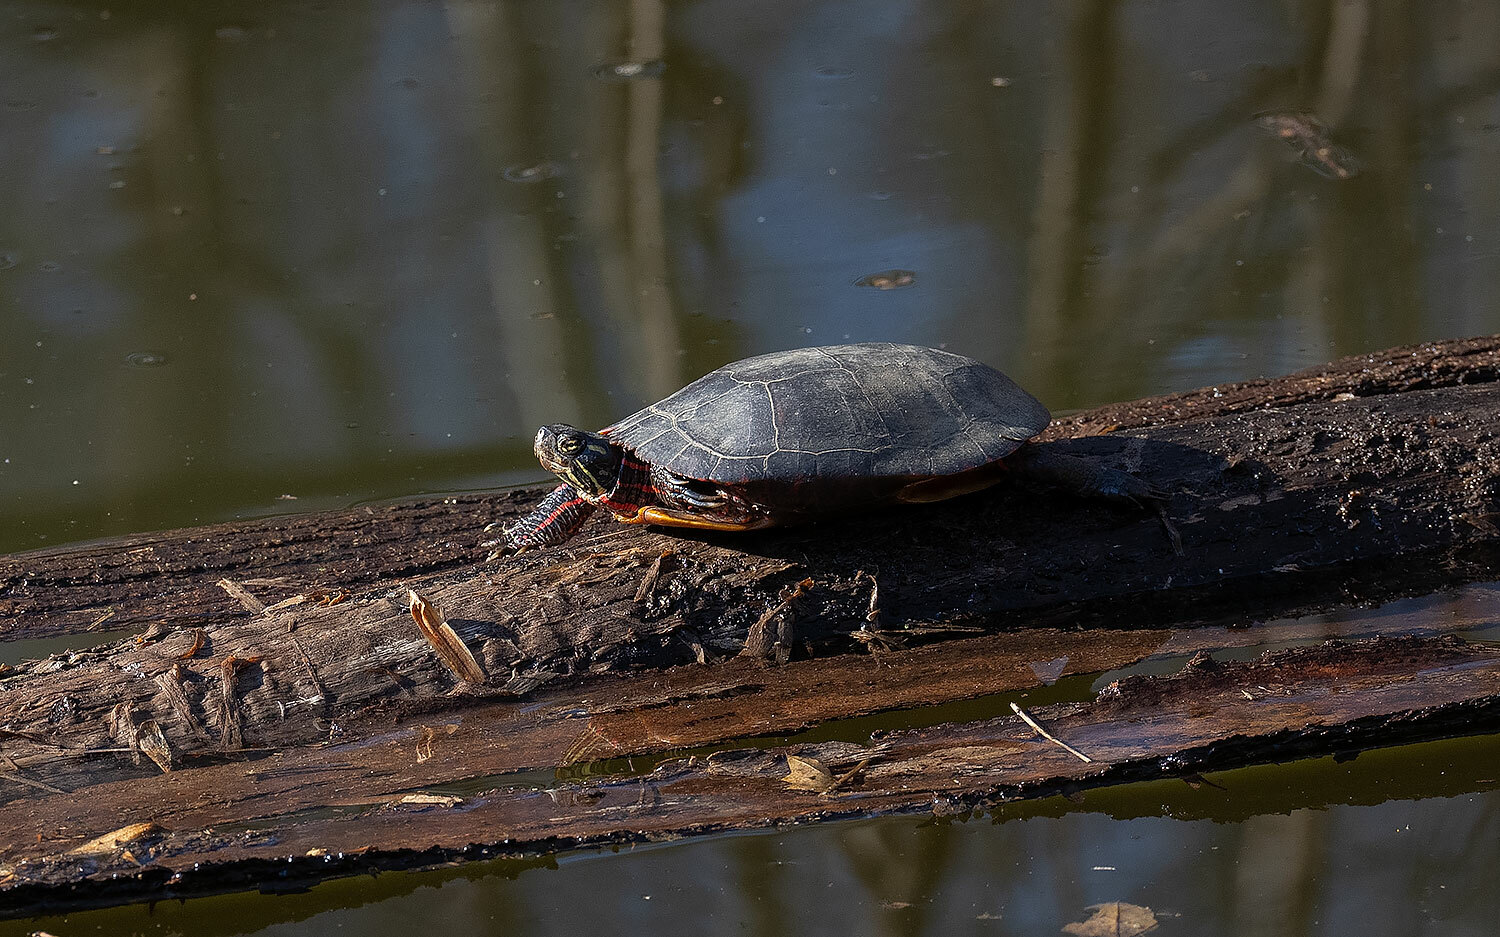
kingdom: Animalia
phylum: Chordata
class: Testudines
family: Emydidae
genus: Chrysemys
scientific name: Chrysemys picta
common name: Painted turtle
